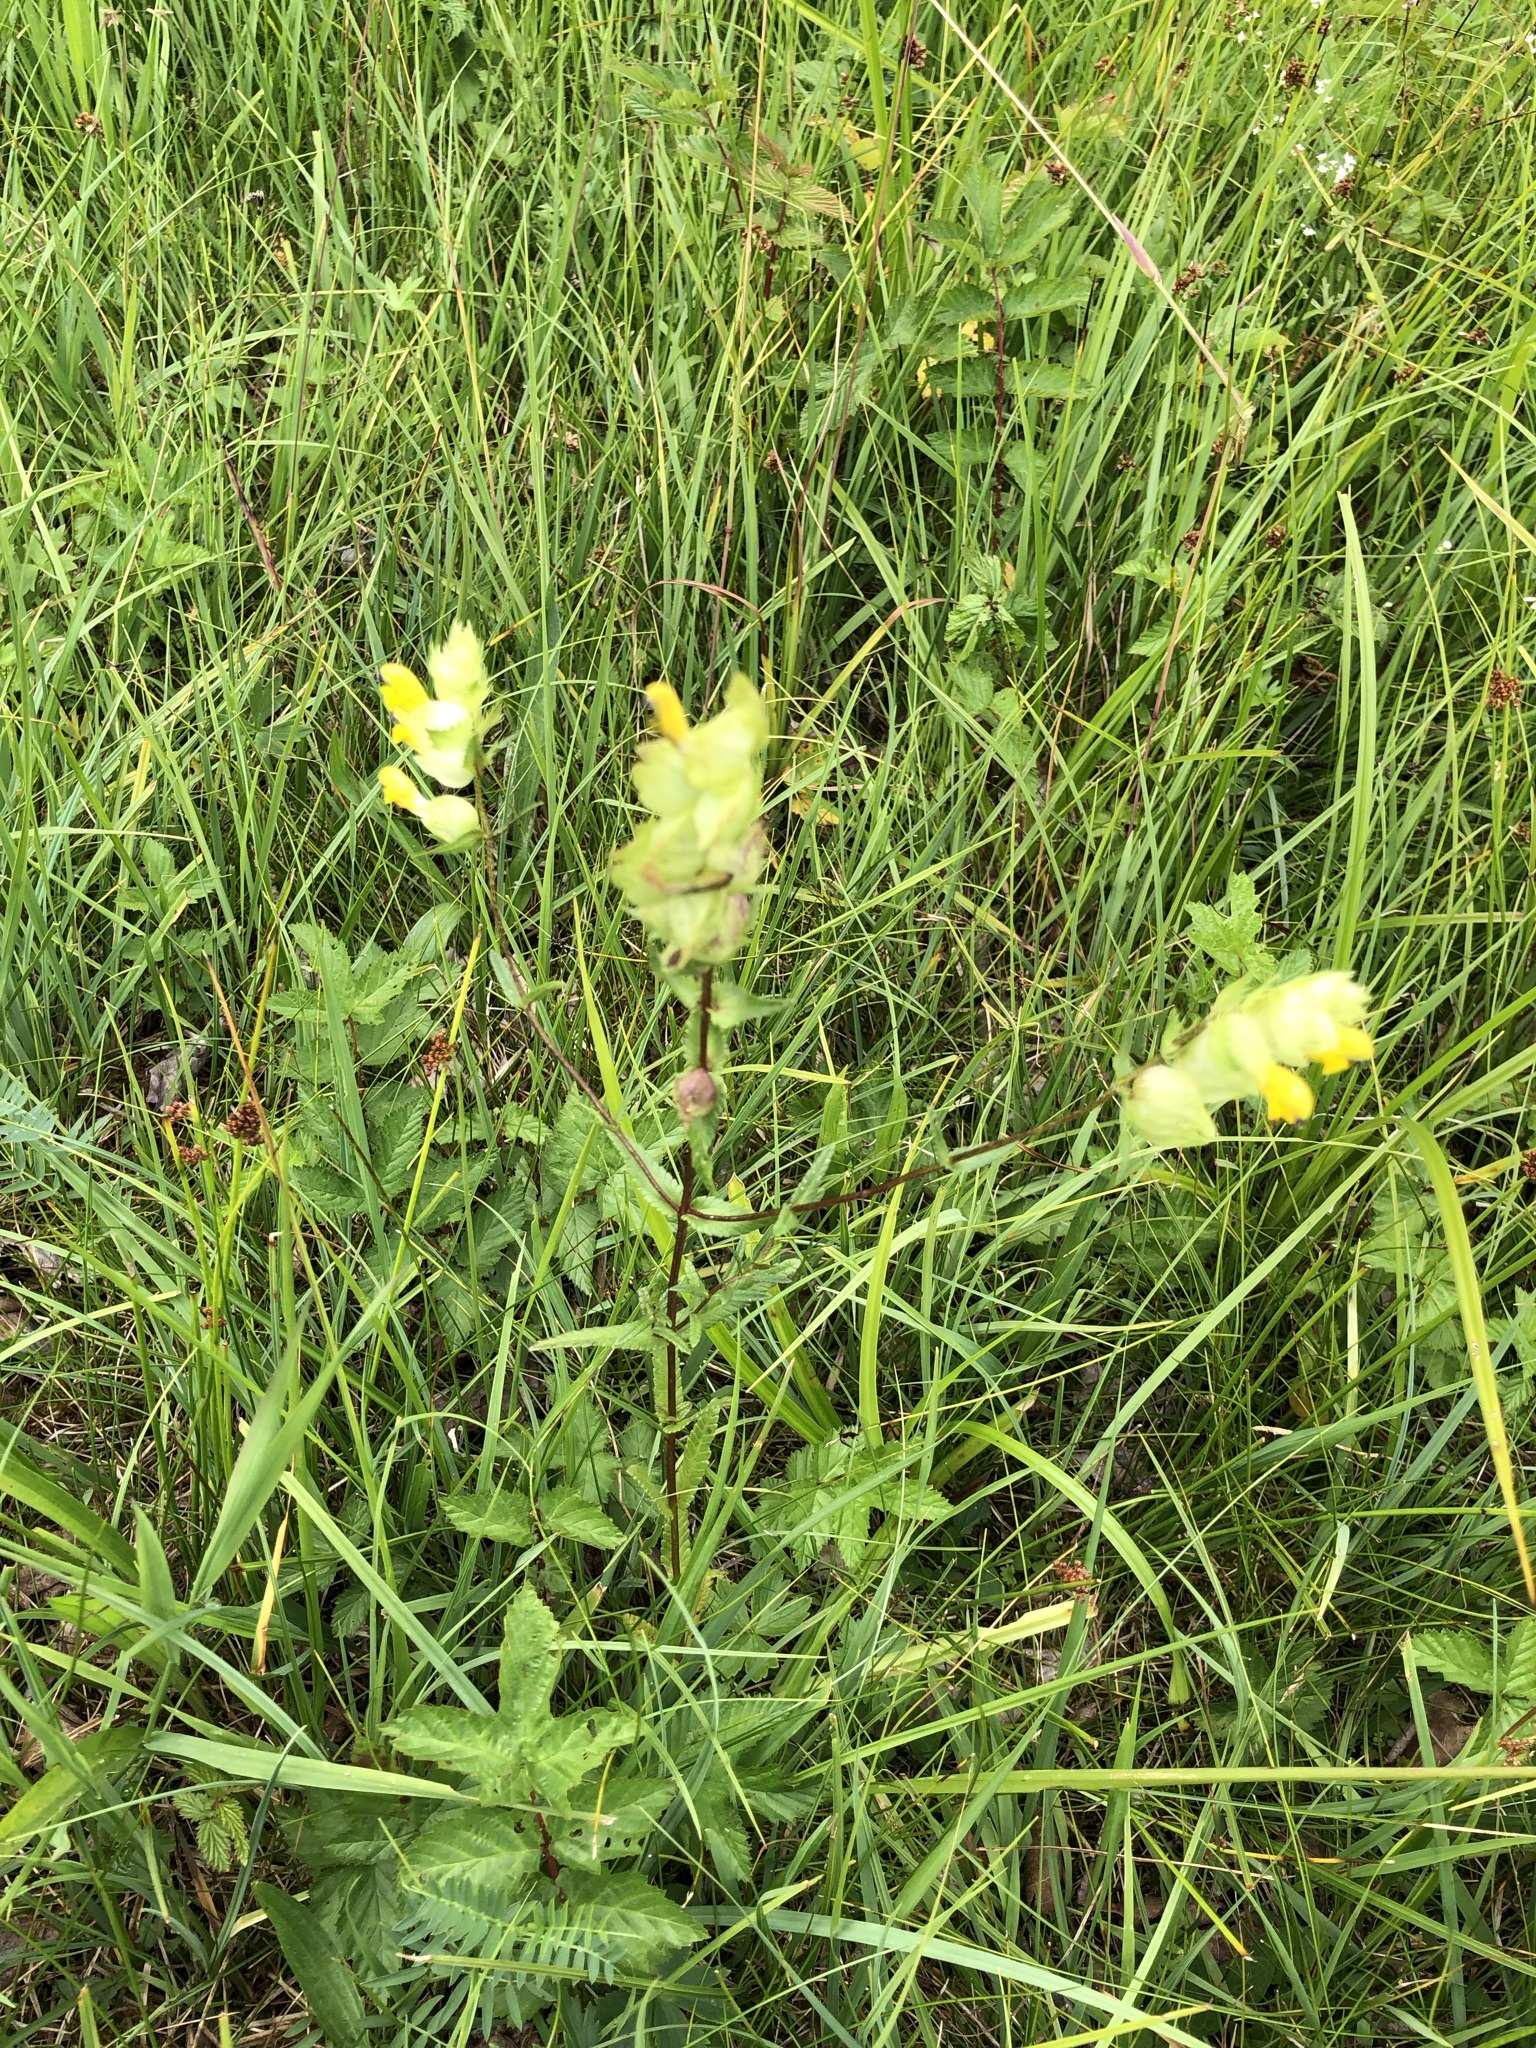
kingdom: Plantae
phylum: Tracheophyta
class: Magnoliopsida
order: Lamiales
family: Orobanchaceae
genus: Rhinanthus
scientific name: Rhinanthus glacialis
